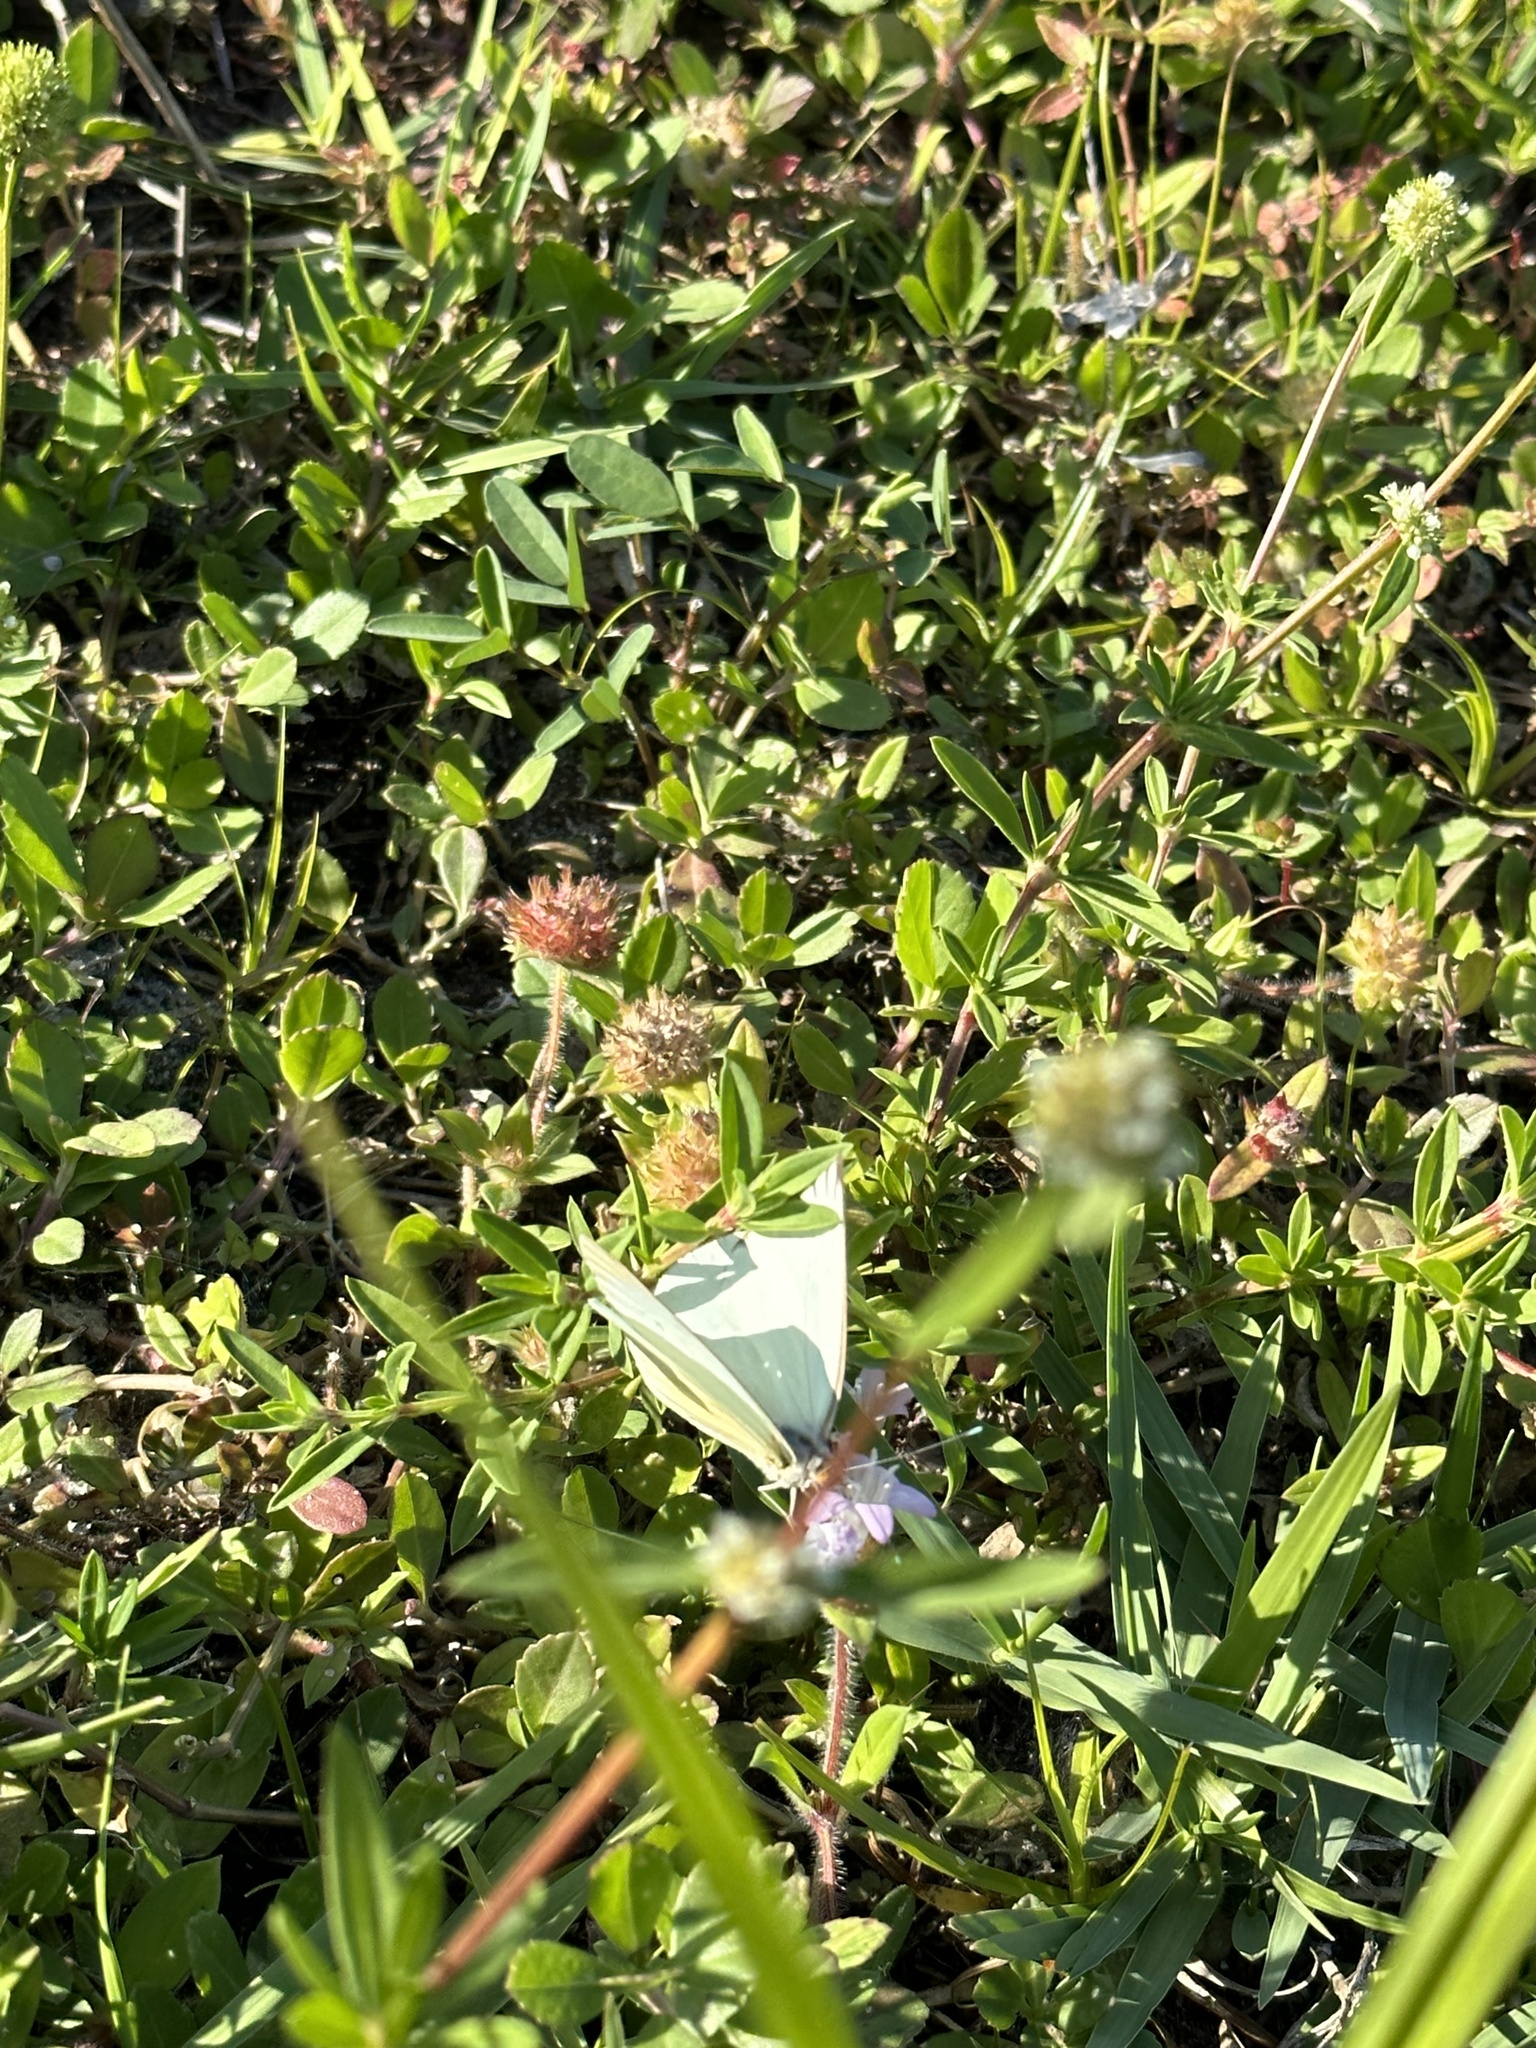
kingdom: Animalia
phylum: Arthropoda
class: Insecta
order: Lepidoptera
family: Pieridae
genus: Ascia
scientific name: Ascia monuste
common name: Great southern white
